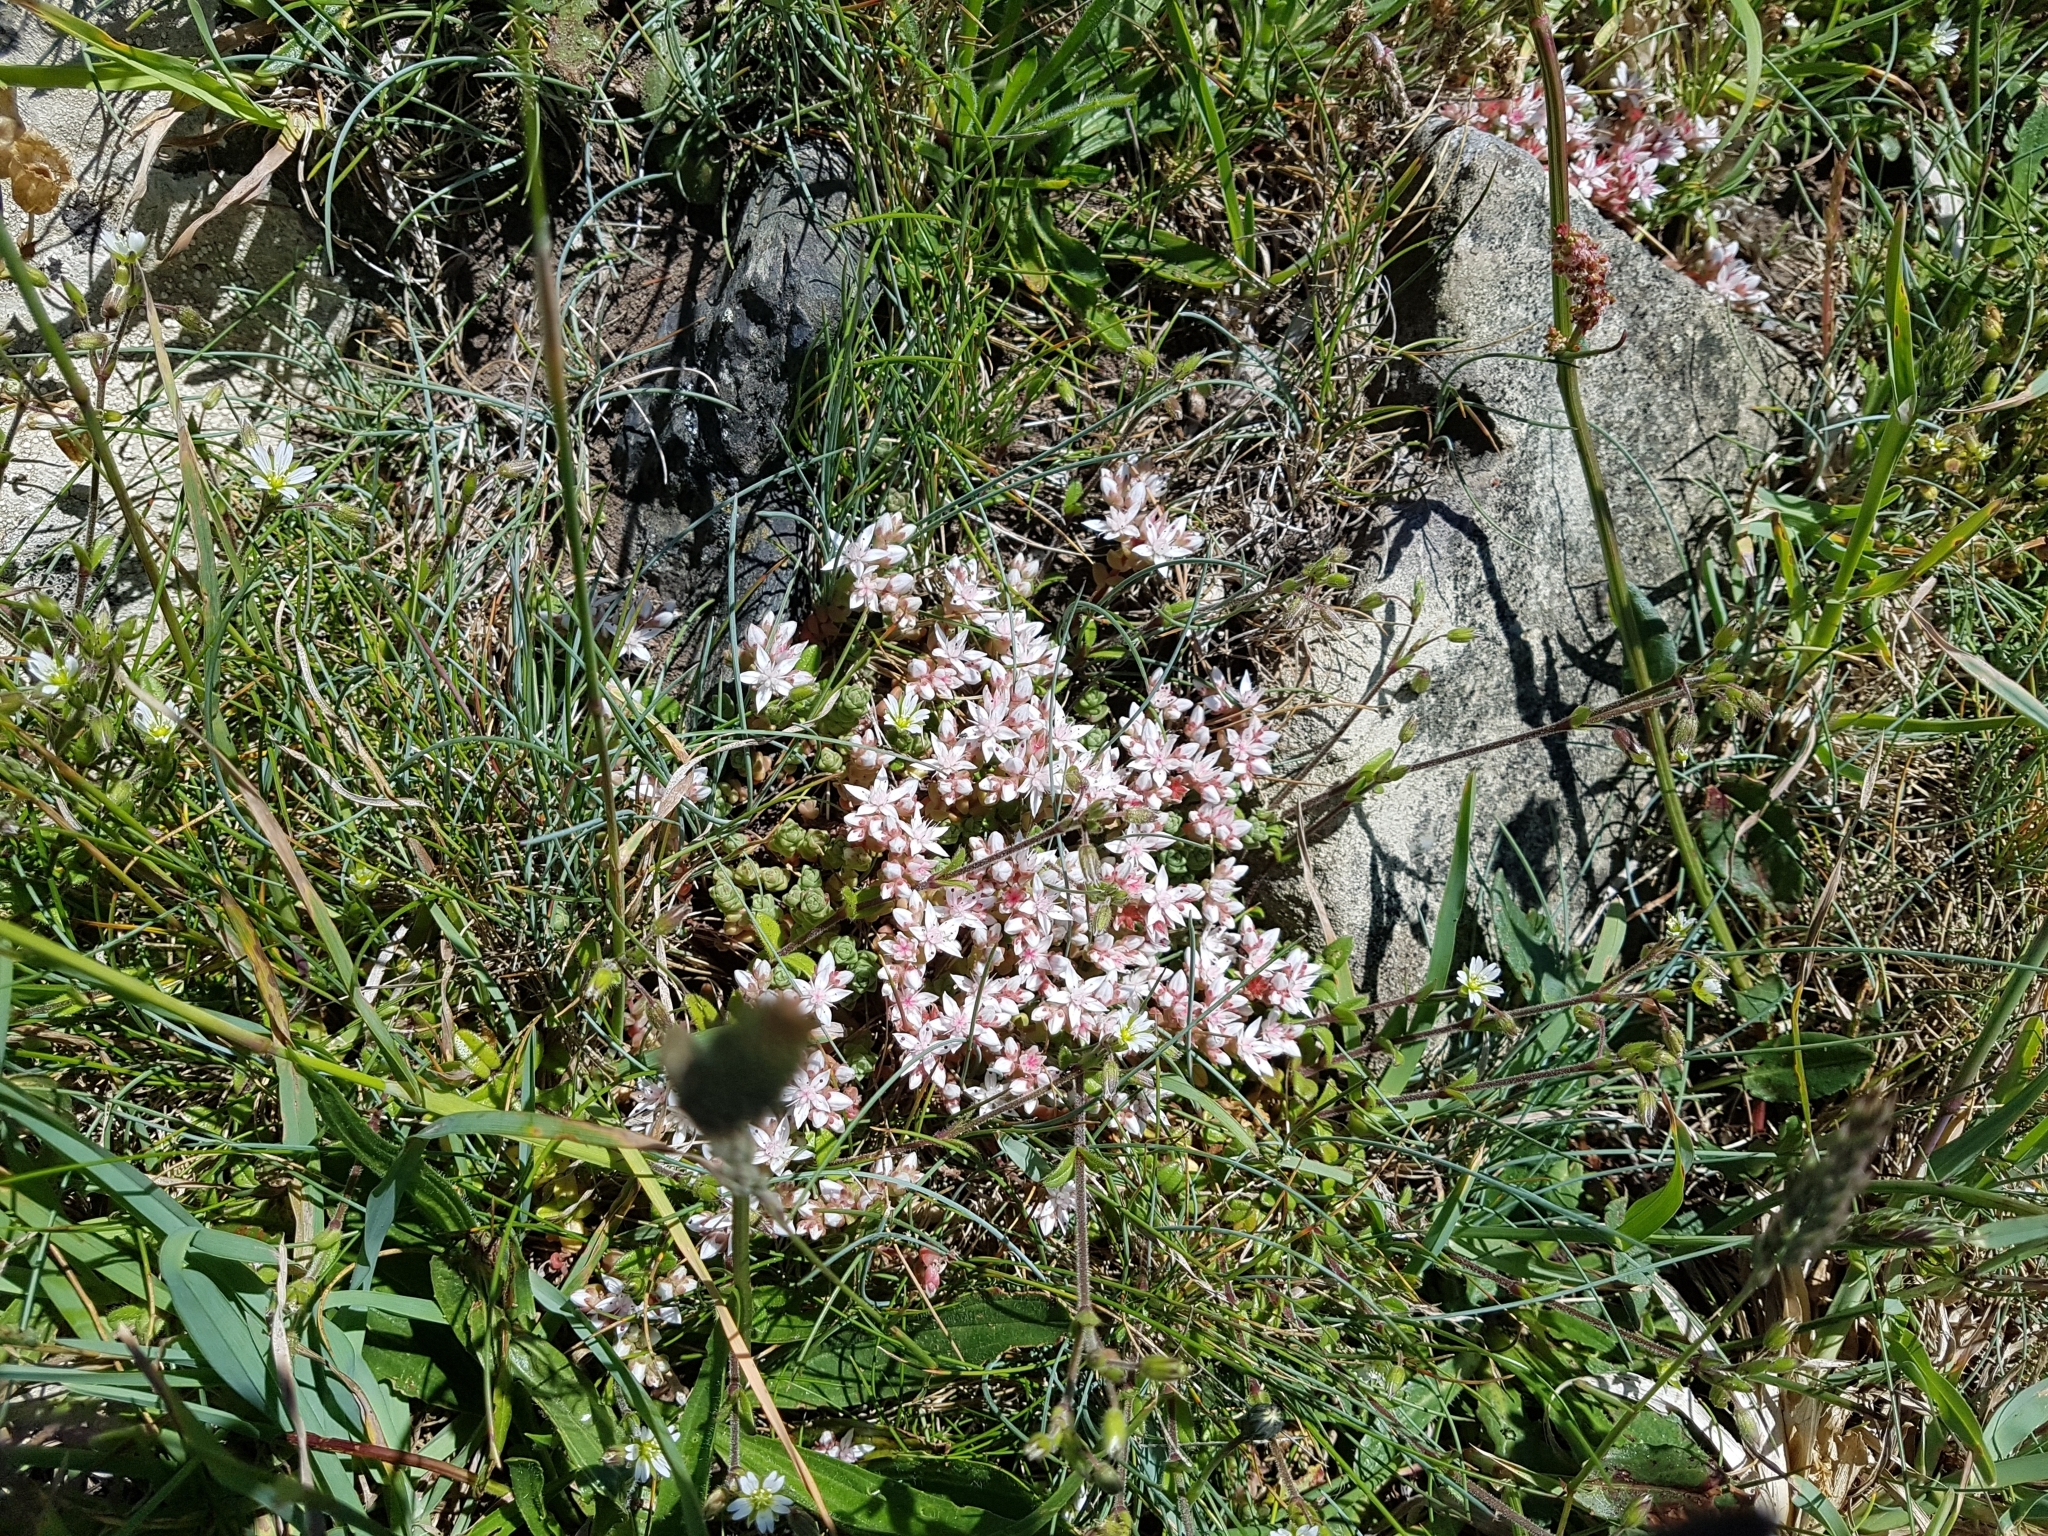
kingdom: Plantae
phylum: Tracheophyta
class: Magnoliopsida
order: Saxifragales
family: Crassulaceae
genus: Sedum
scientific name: Sedum anglicum
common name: English stonecrop
